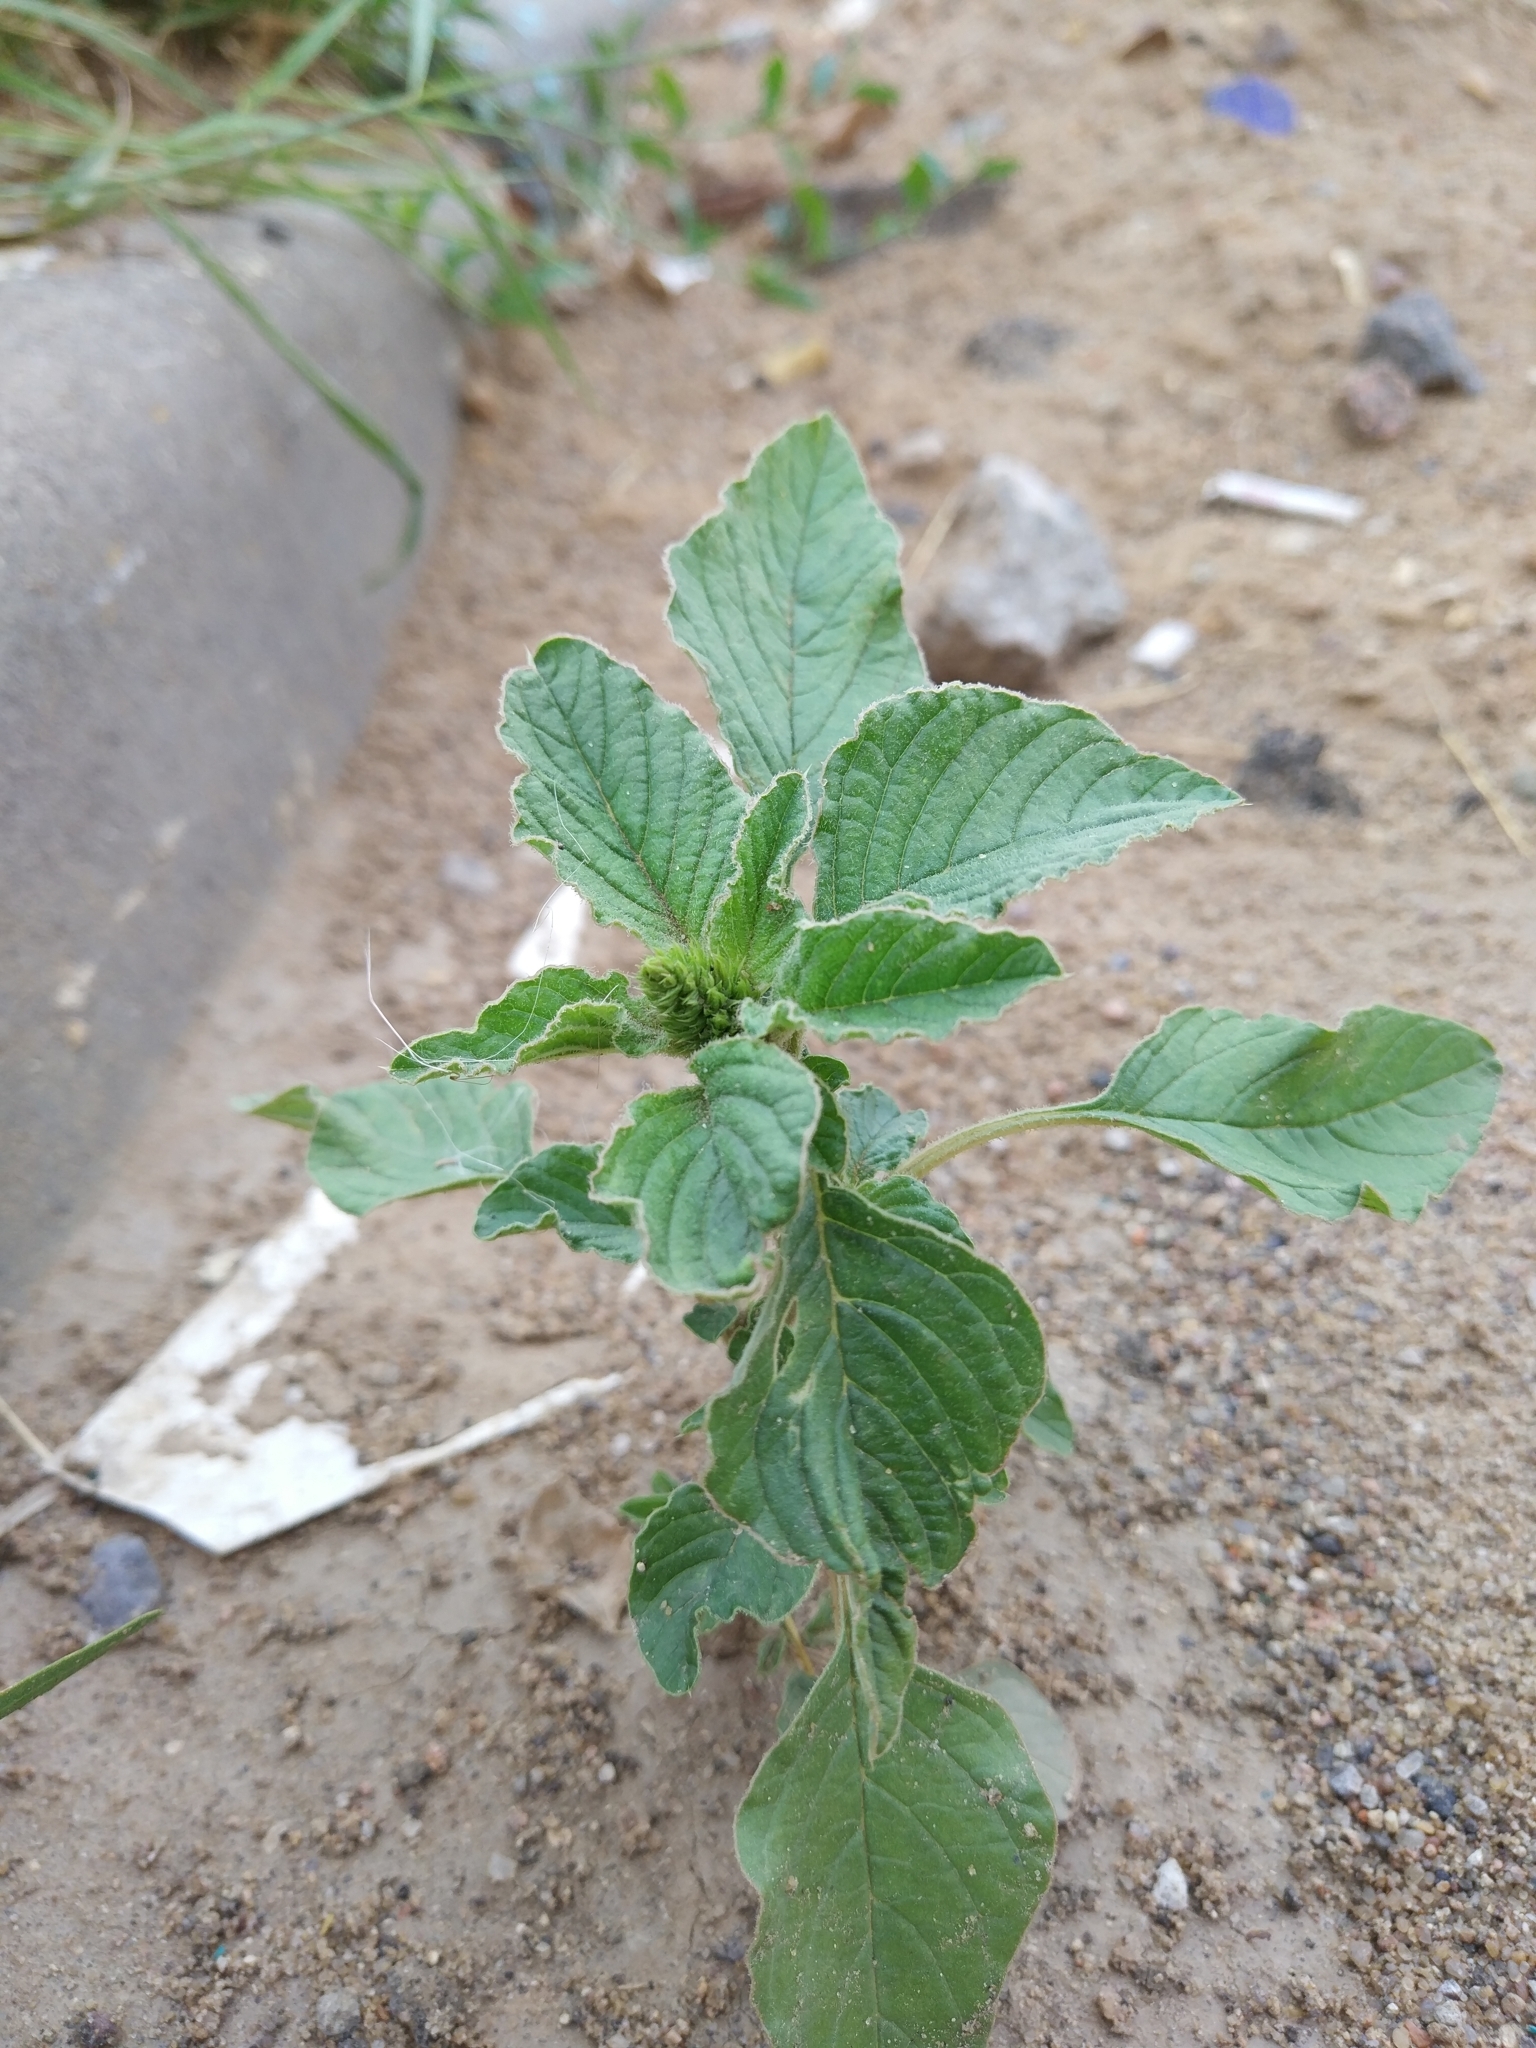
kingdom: Plantae
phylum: Tracheophyta
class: Magnoliopsida
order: Caryophyllales
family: Amaranthaceae
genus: Amaranthus
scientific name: Amaranthus retroflexus
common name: Redroot amaranth
